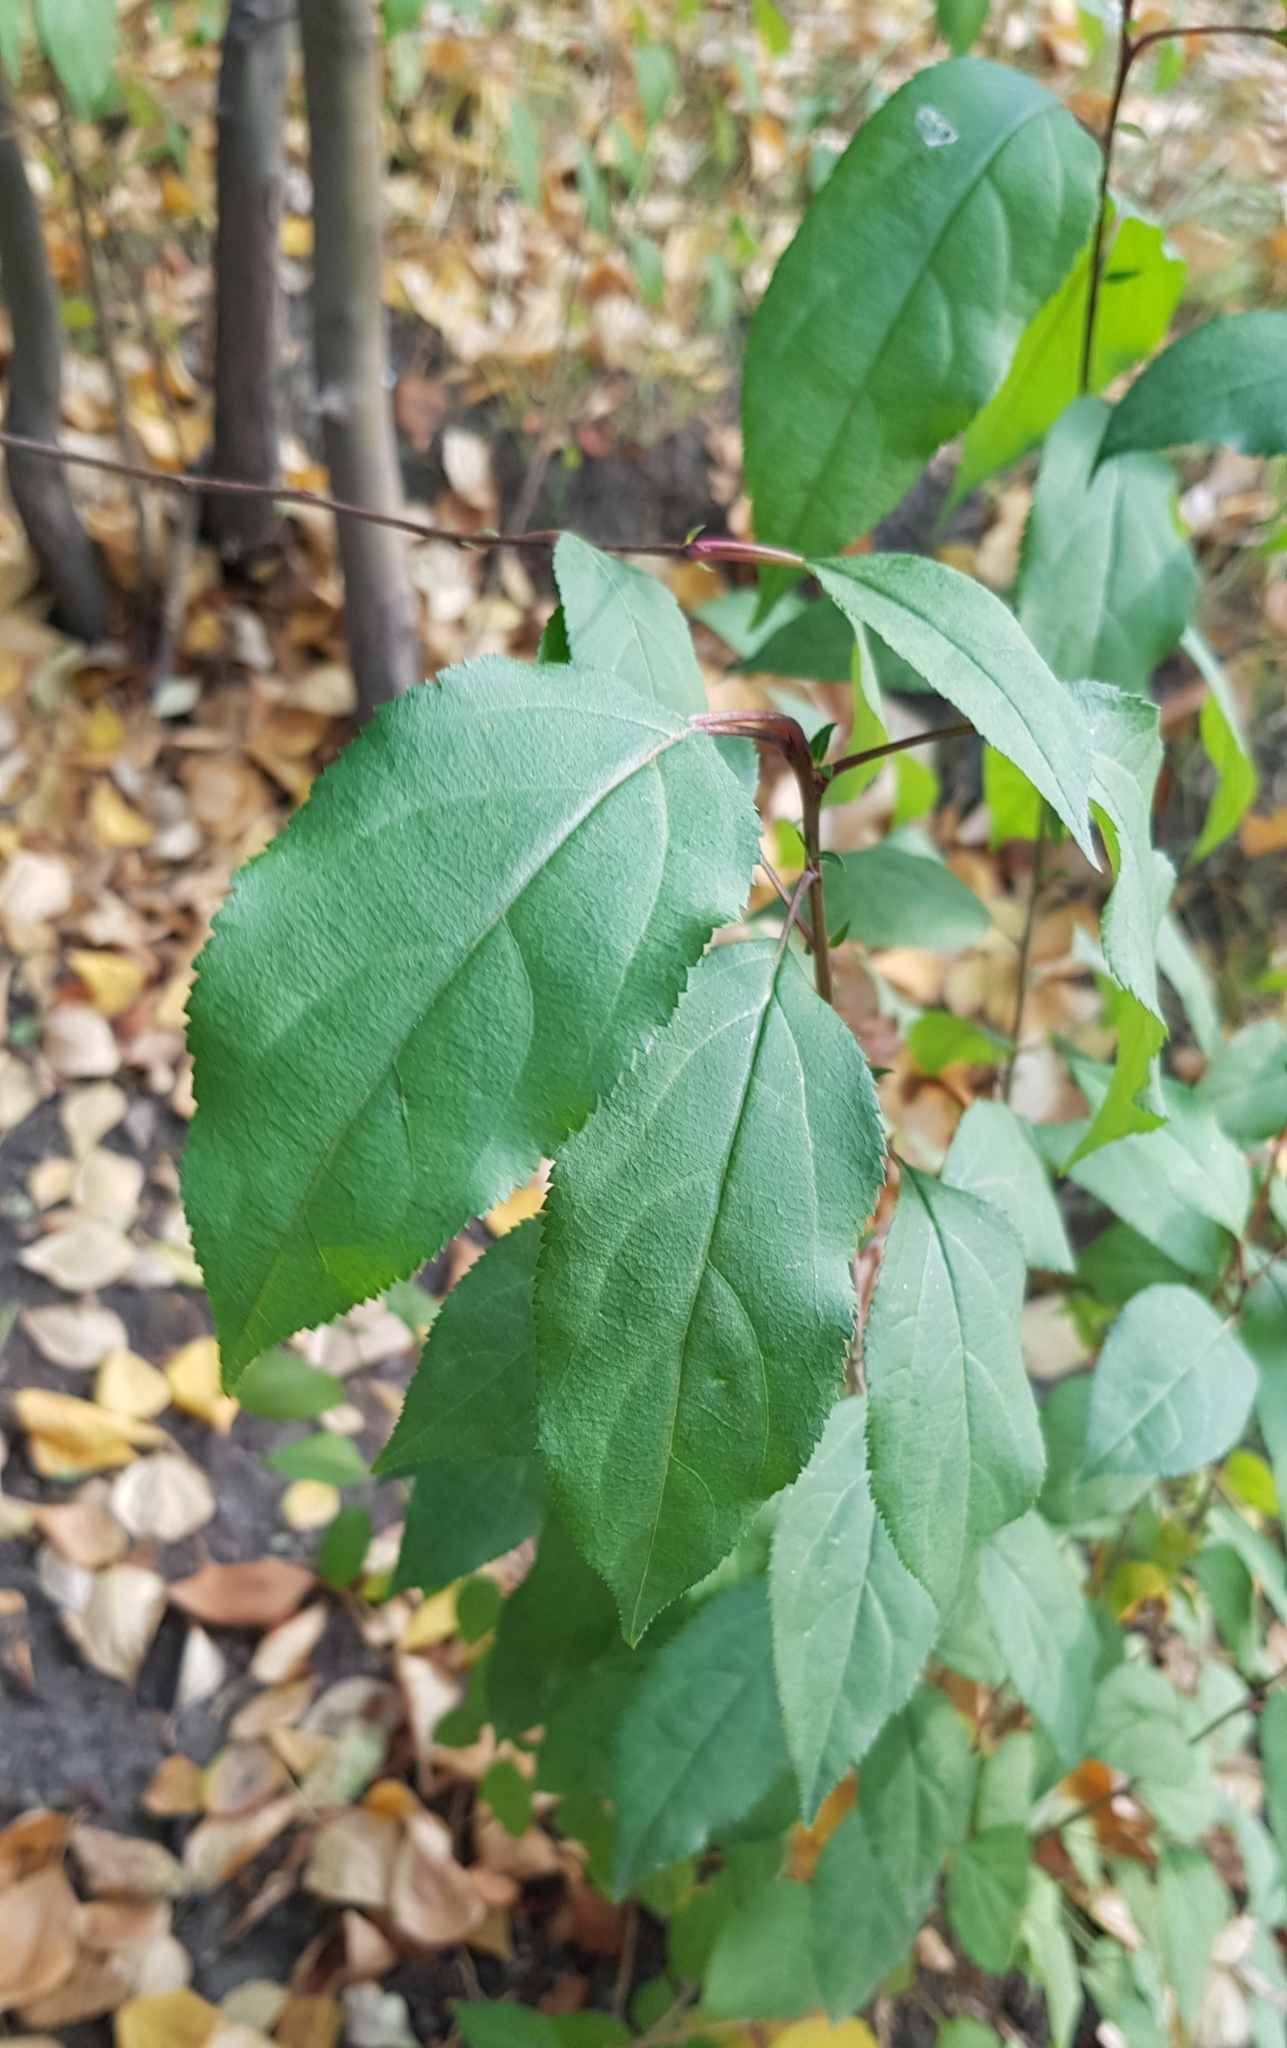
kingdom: Plantae
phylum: Tracheophyta
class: Magnoliopsida
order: Rosales
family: Rosaceae
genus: Malus
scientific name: Malus baccata
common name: Siberian crab
